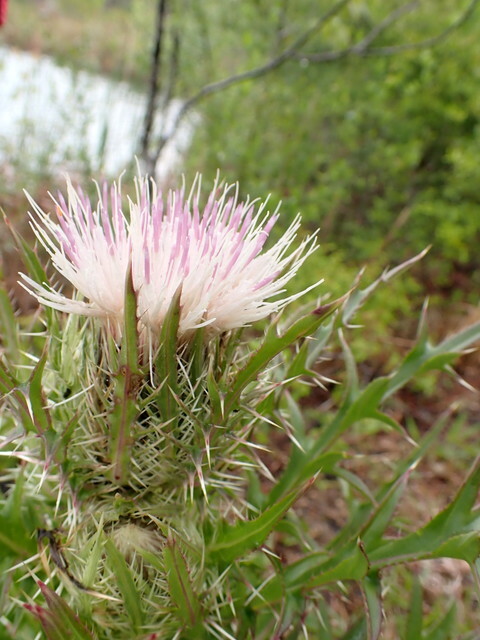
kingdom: Plantae
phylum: Tracheophyta
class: Magnoliopsida
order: Asterales
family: Asteraceae
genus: Cirsium
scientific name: Cirsium horridulum
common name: Bristly thistle
